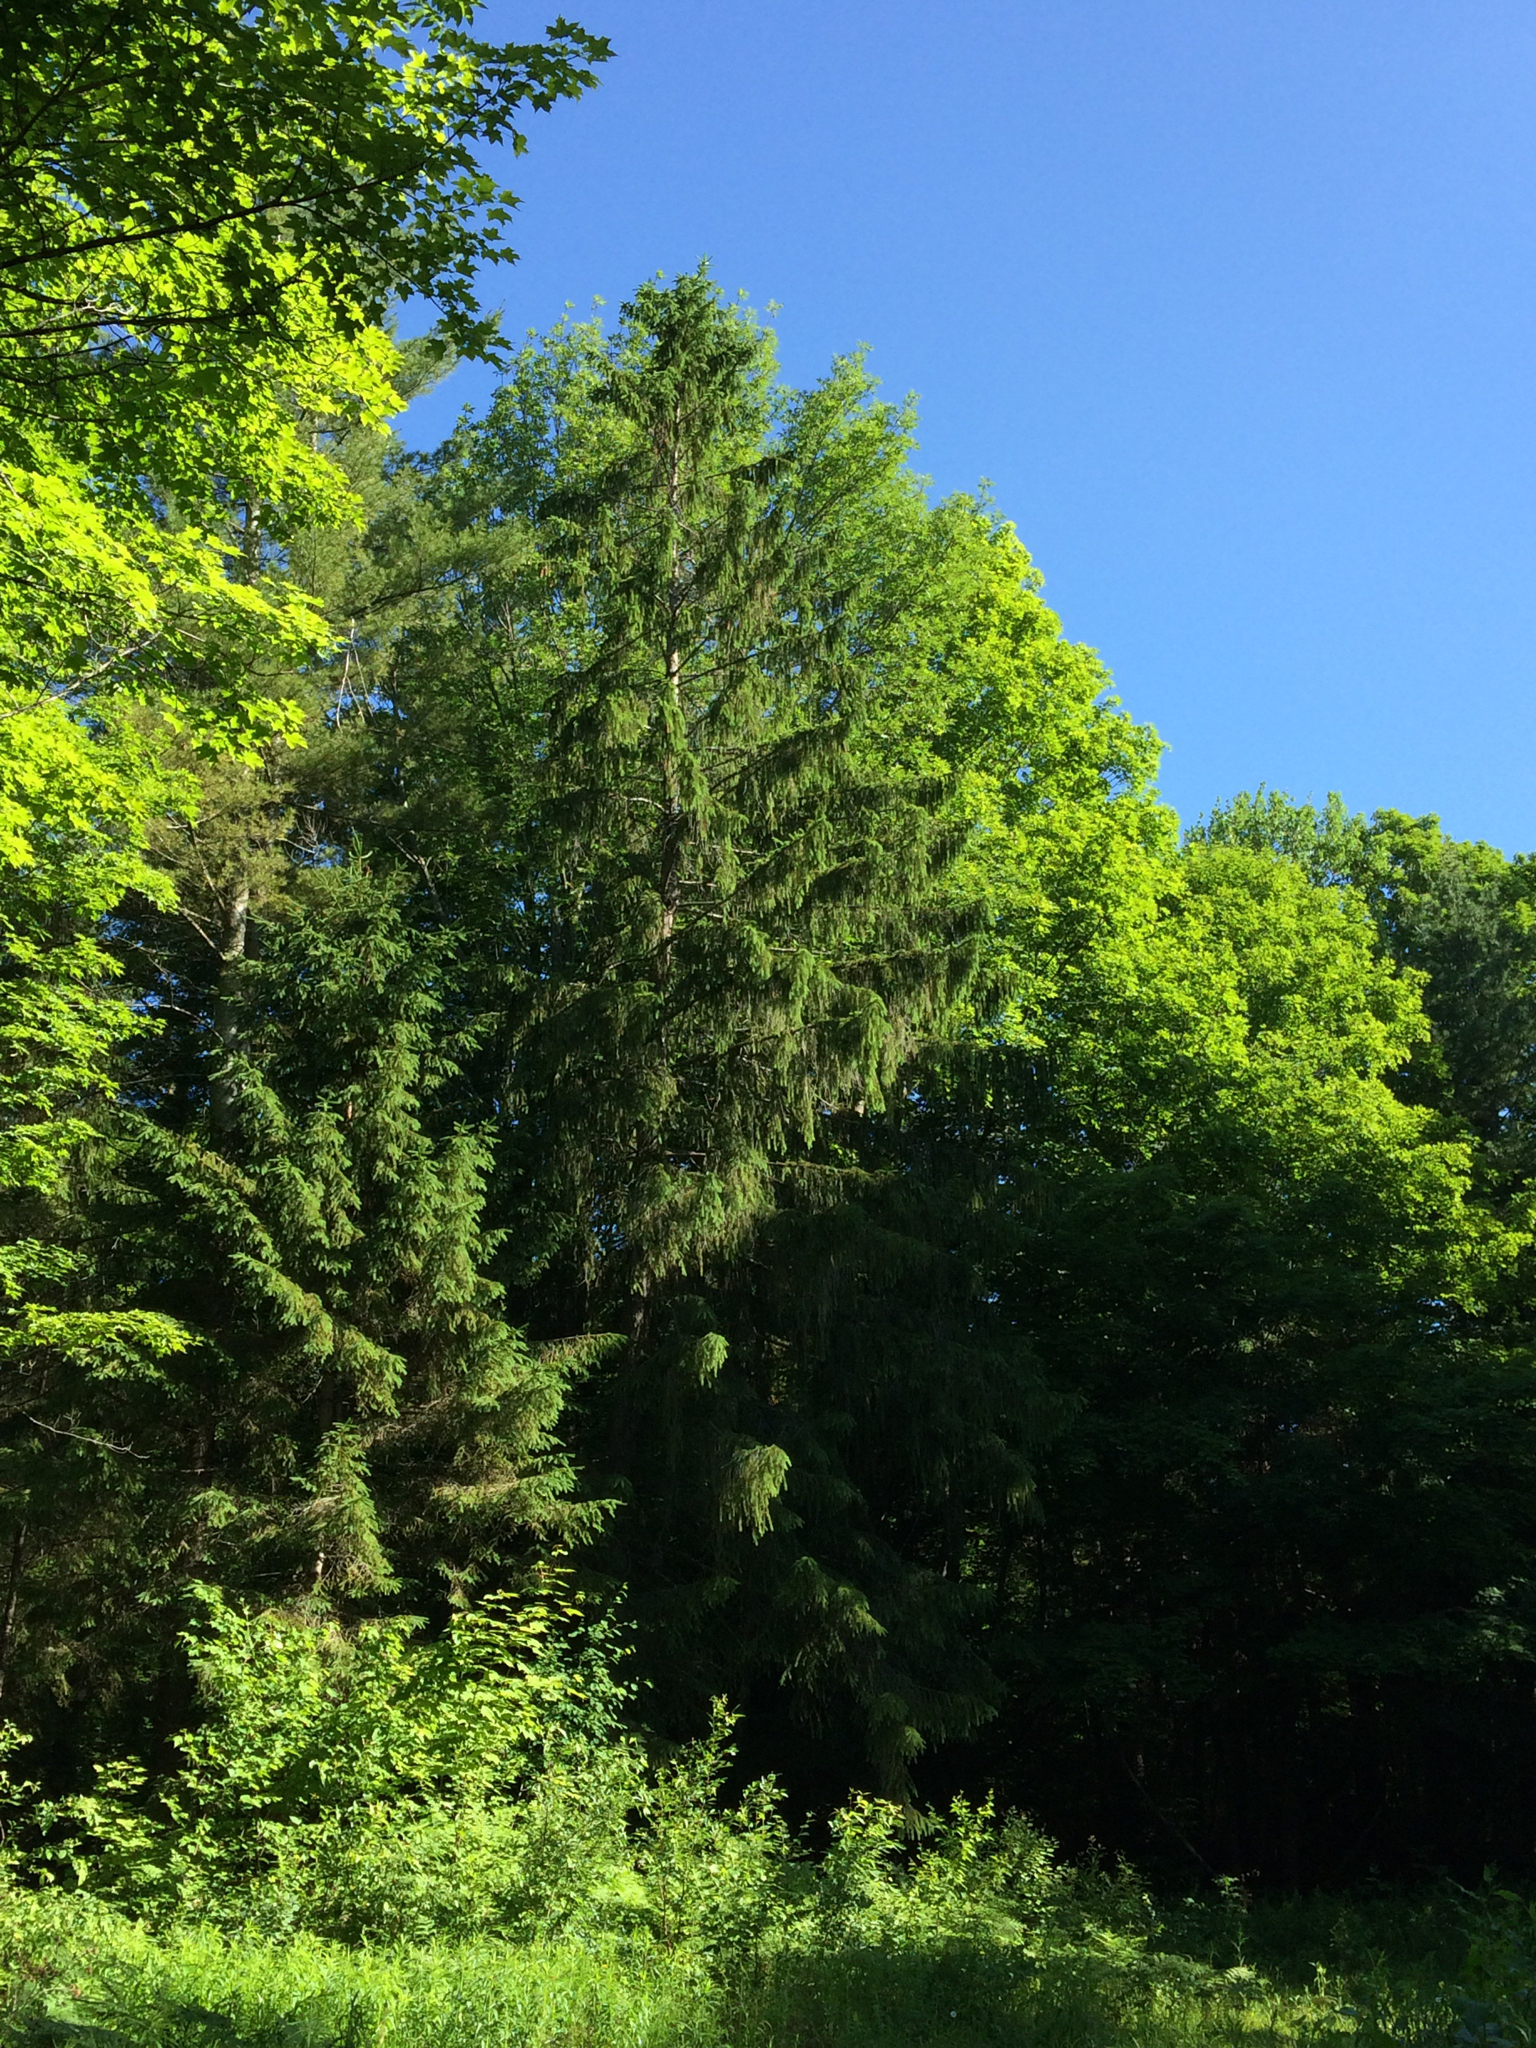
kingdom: Plantae
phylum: Tracheophyta
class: Pinopsida
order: Pinales
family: Pinaceae
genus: Picea
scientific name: Picea abies
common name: Norway spruce
